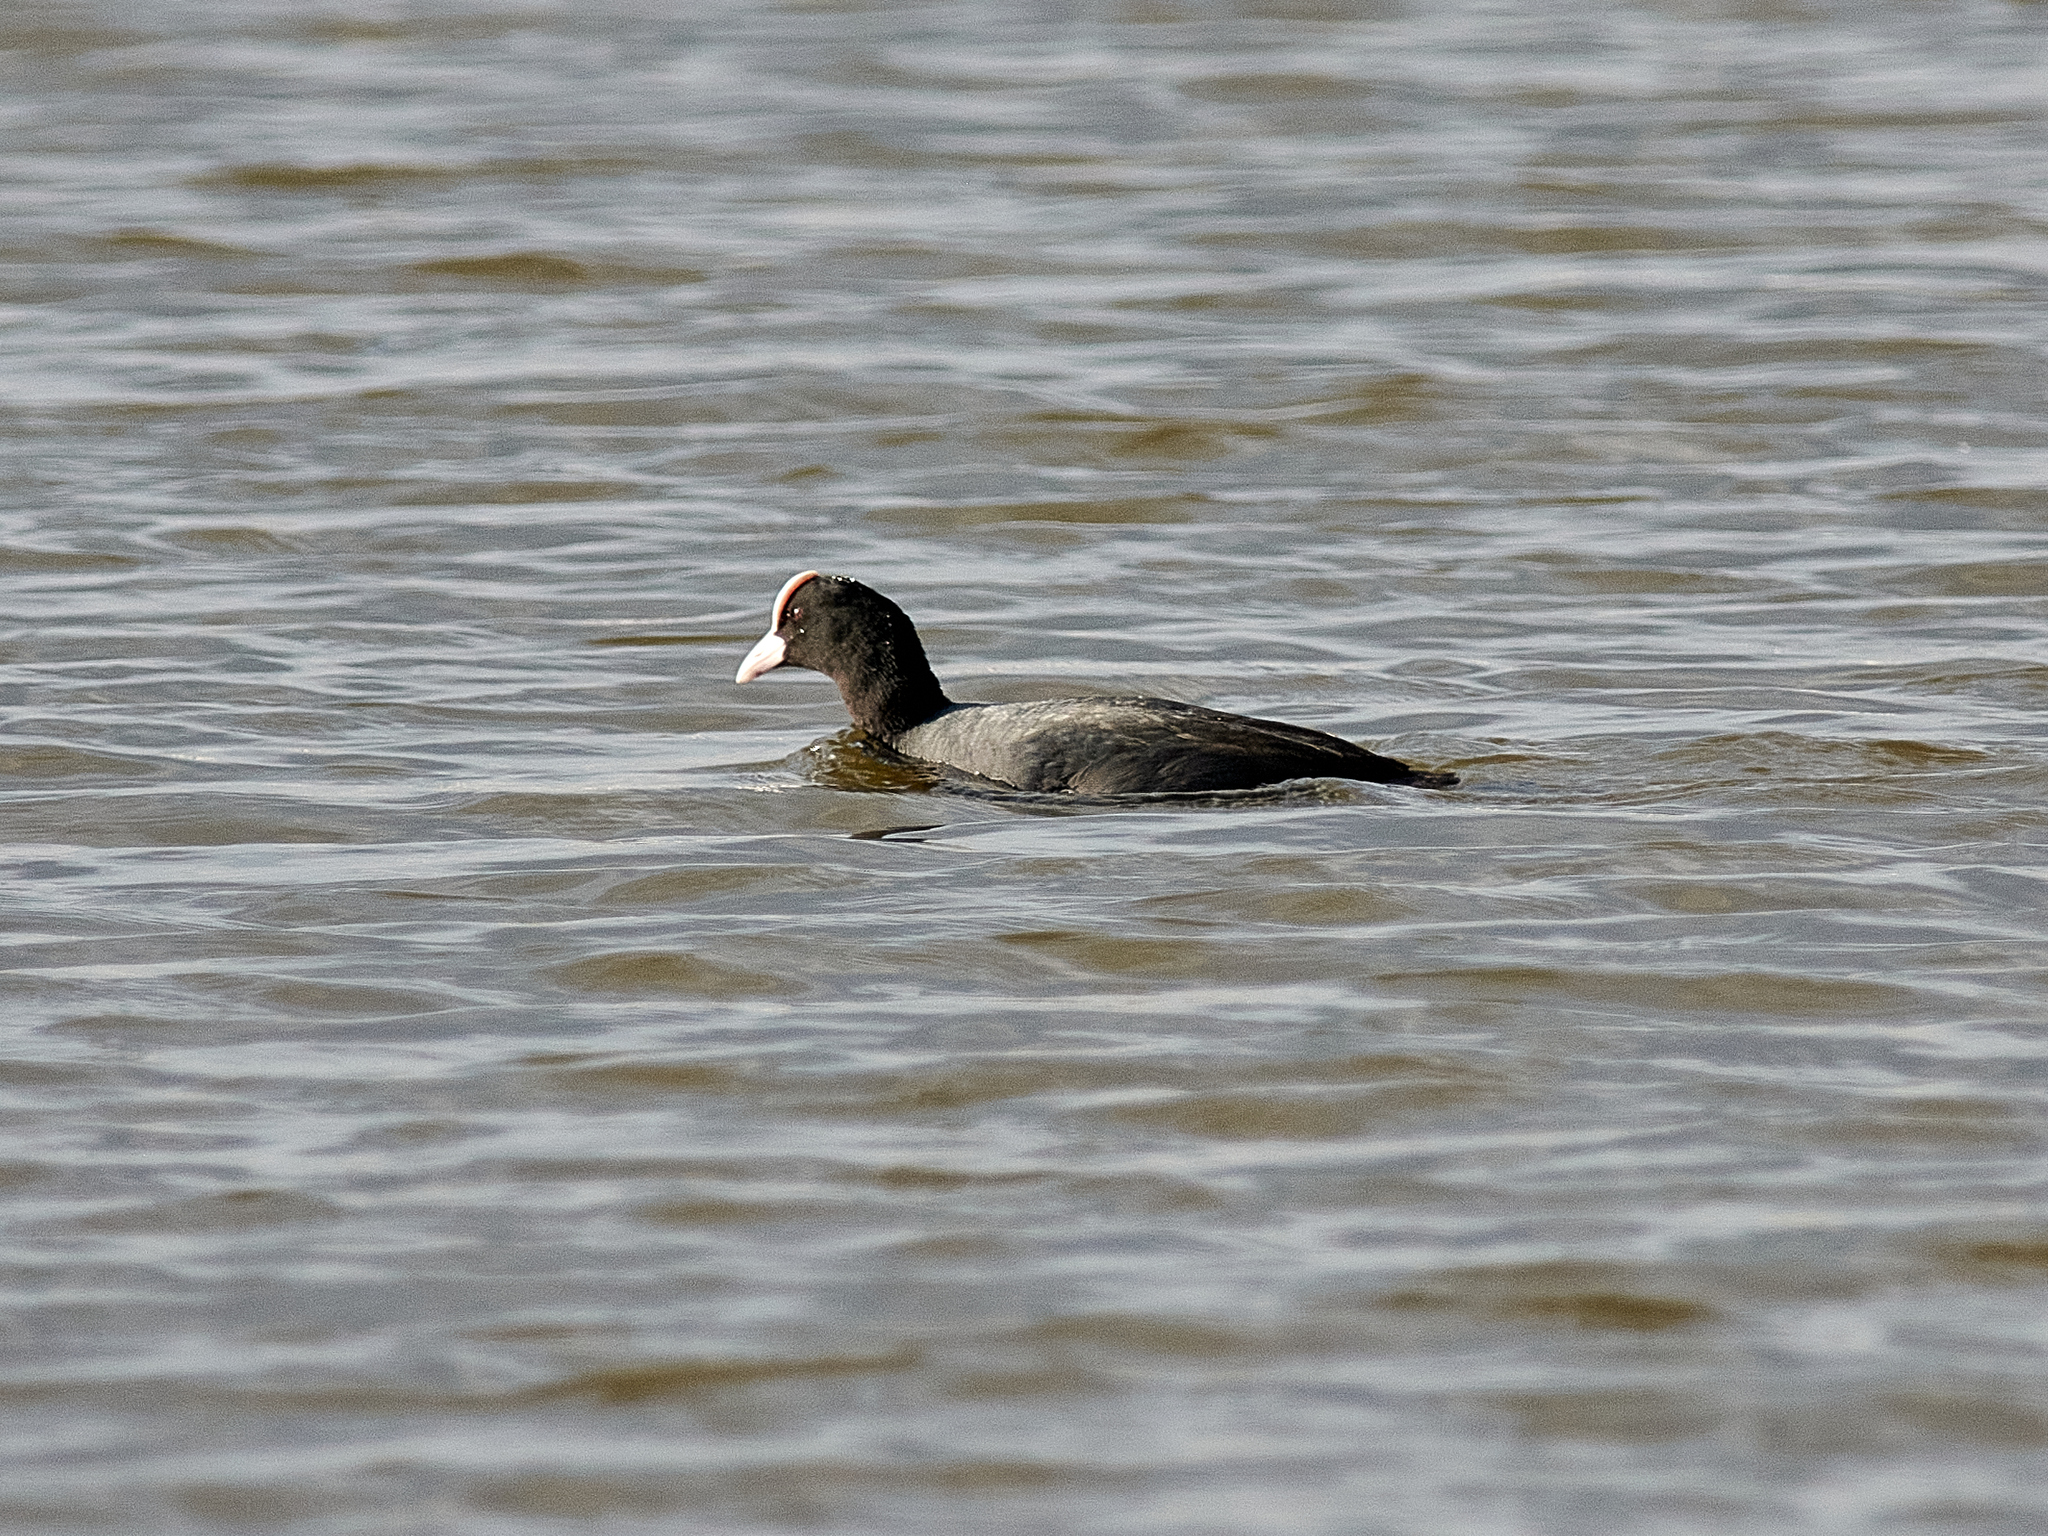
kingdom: Animalia
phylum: Chordata
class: Aves
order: Gruiformes
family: Rallidae
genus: Fulica
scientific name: Fulica atra
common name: Eurasian coot
